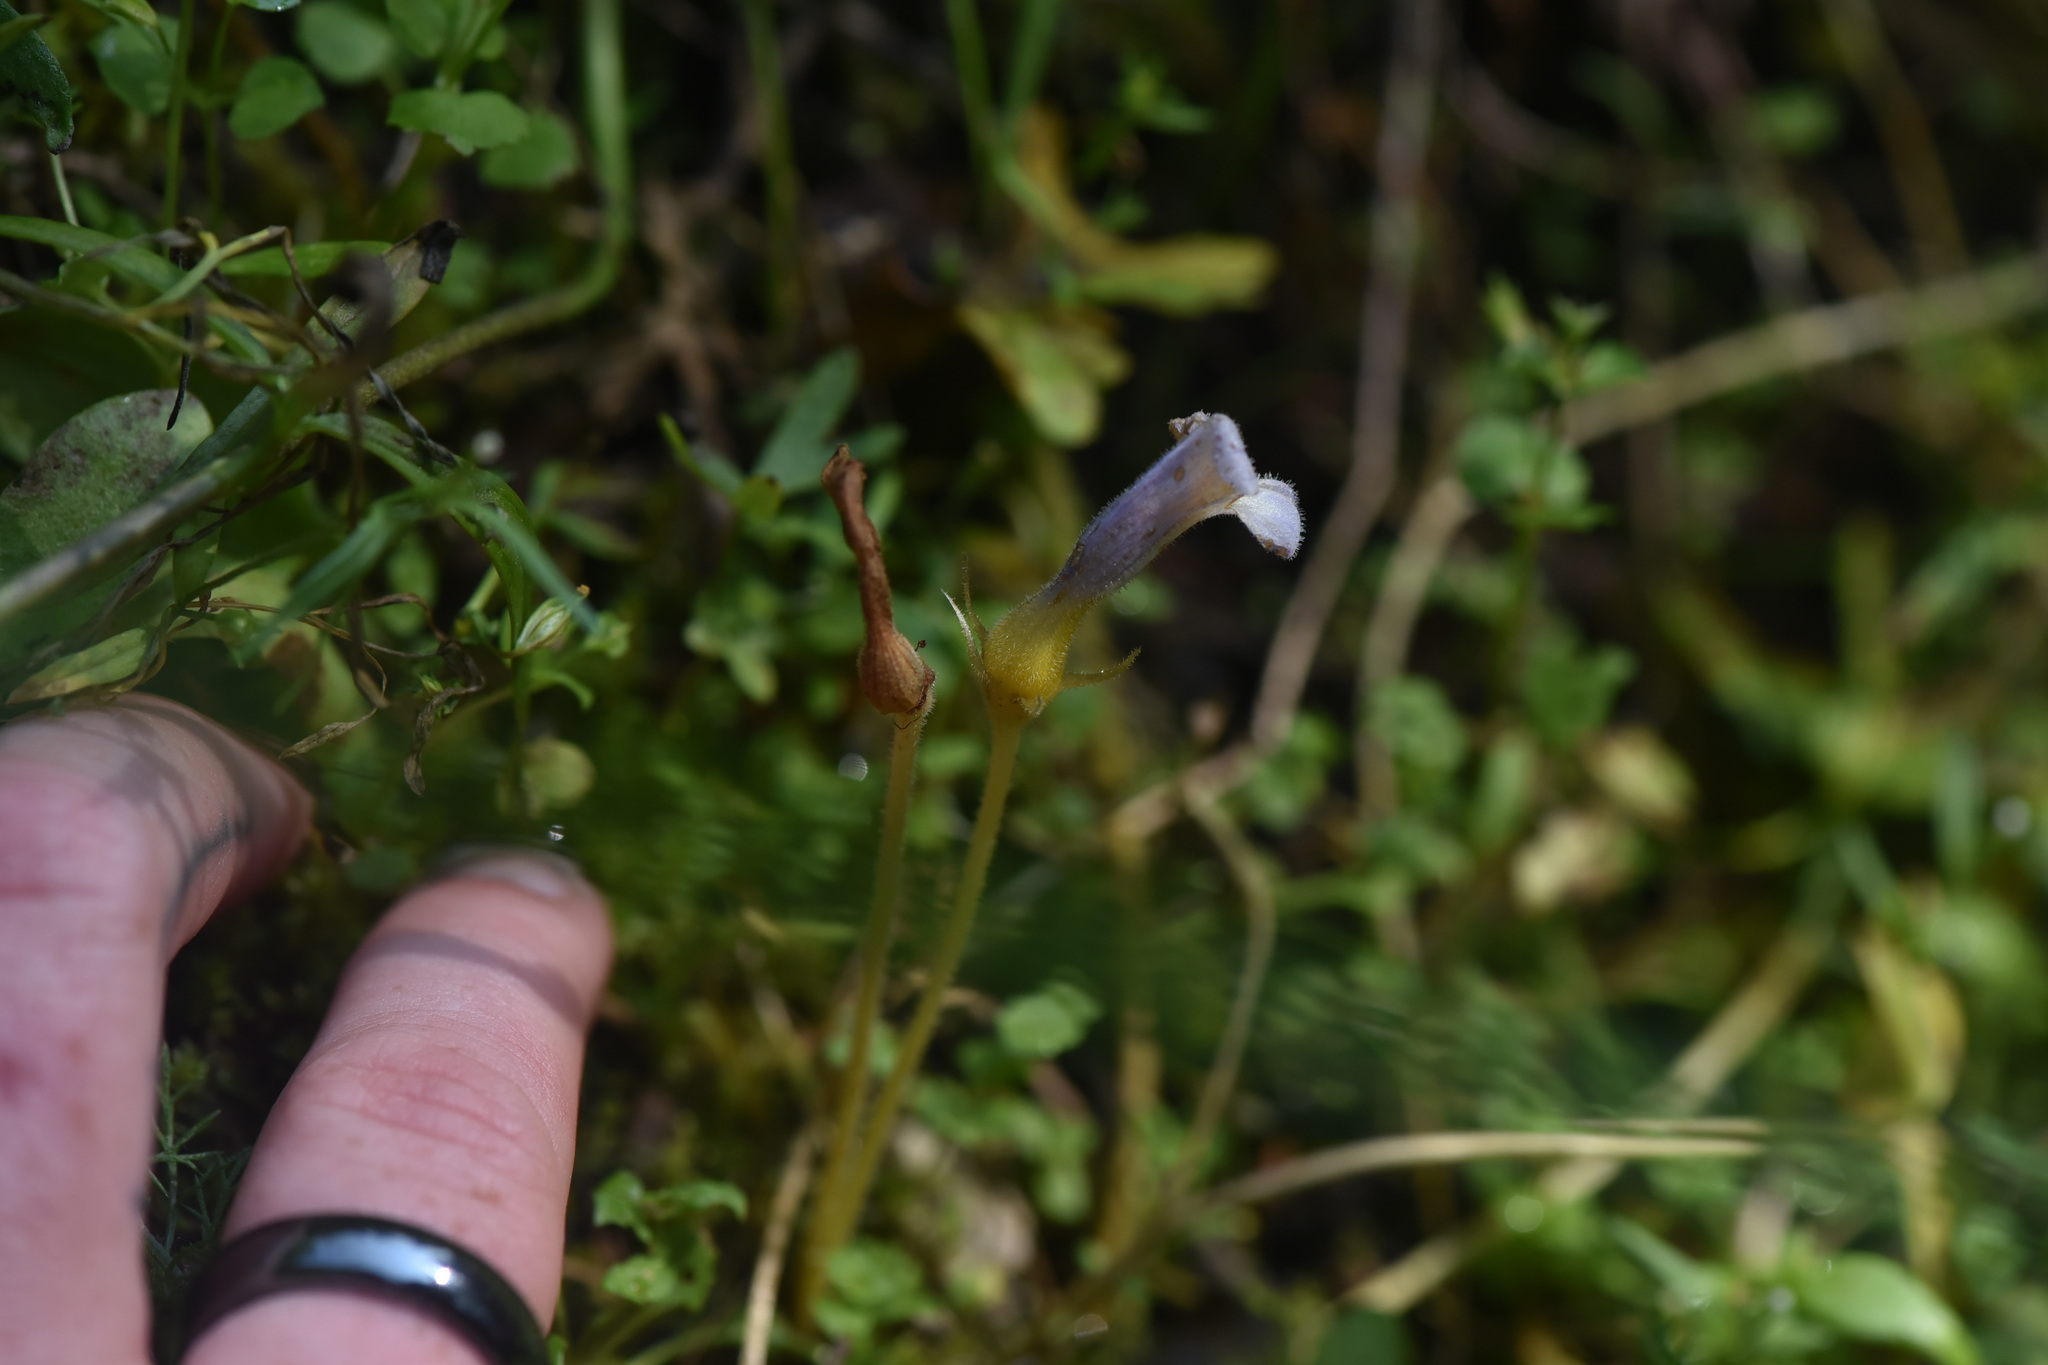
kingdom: Plantae
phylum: Tracheophyta
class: Magnoliopsida
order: Lamiales
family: Orobanchaceae
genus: Aphyllon
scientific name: Aphyllon uniflorum
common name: One-flowered broomrape
